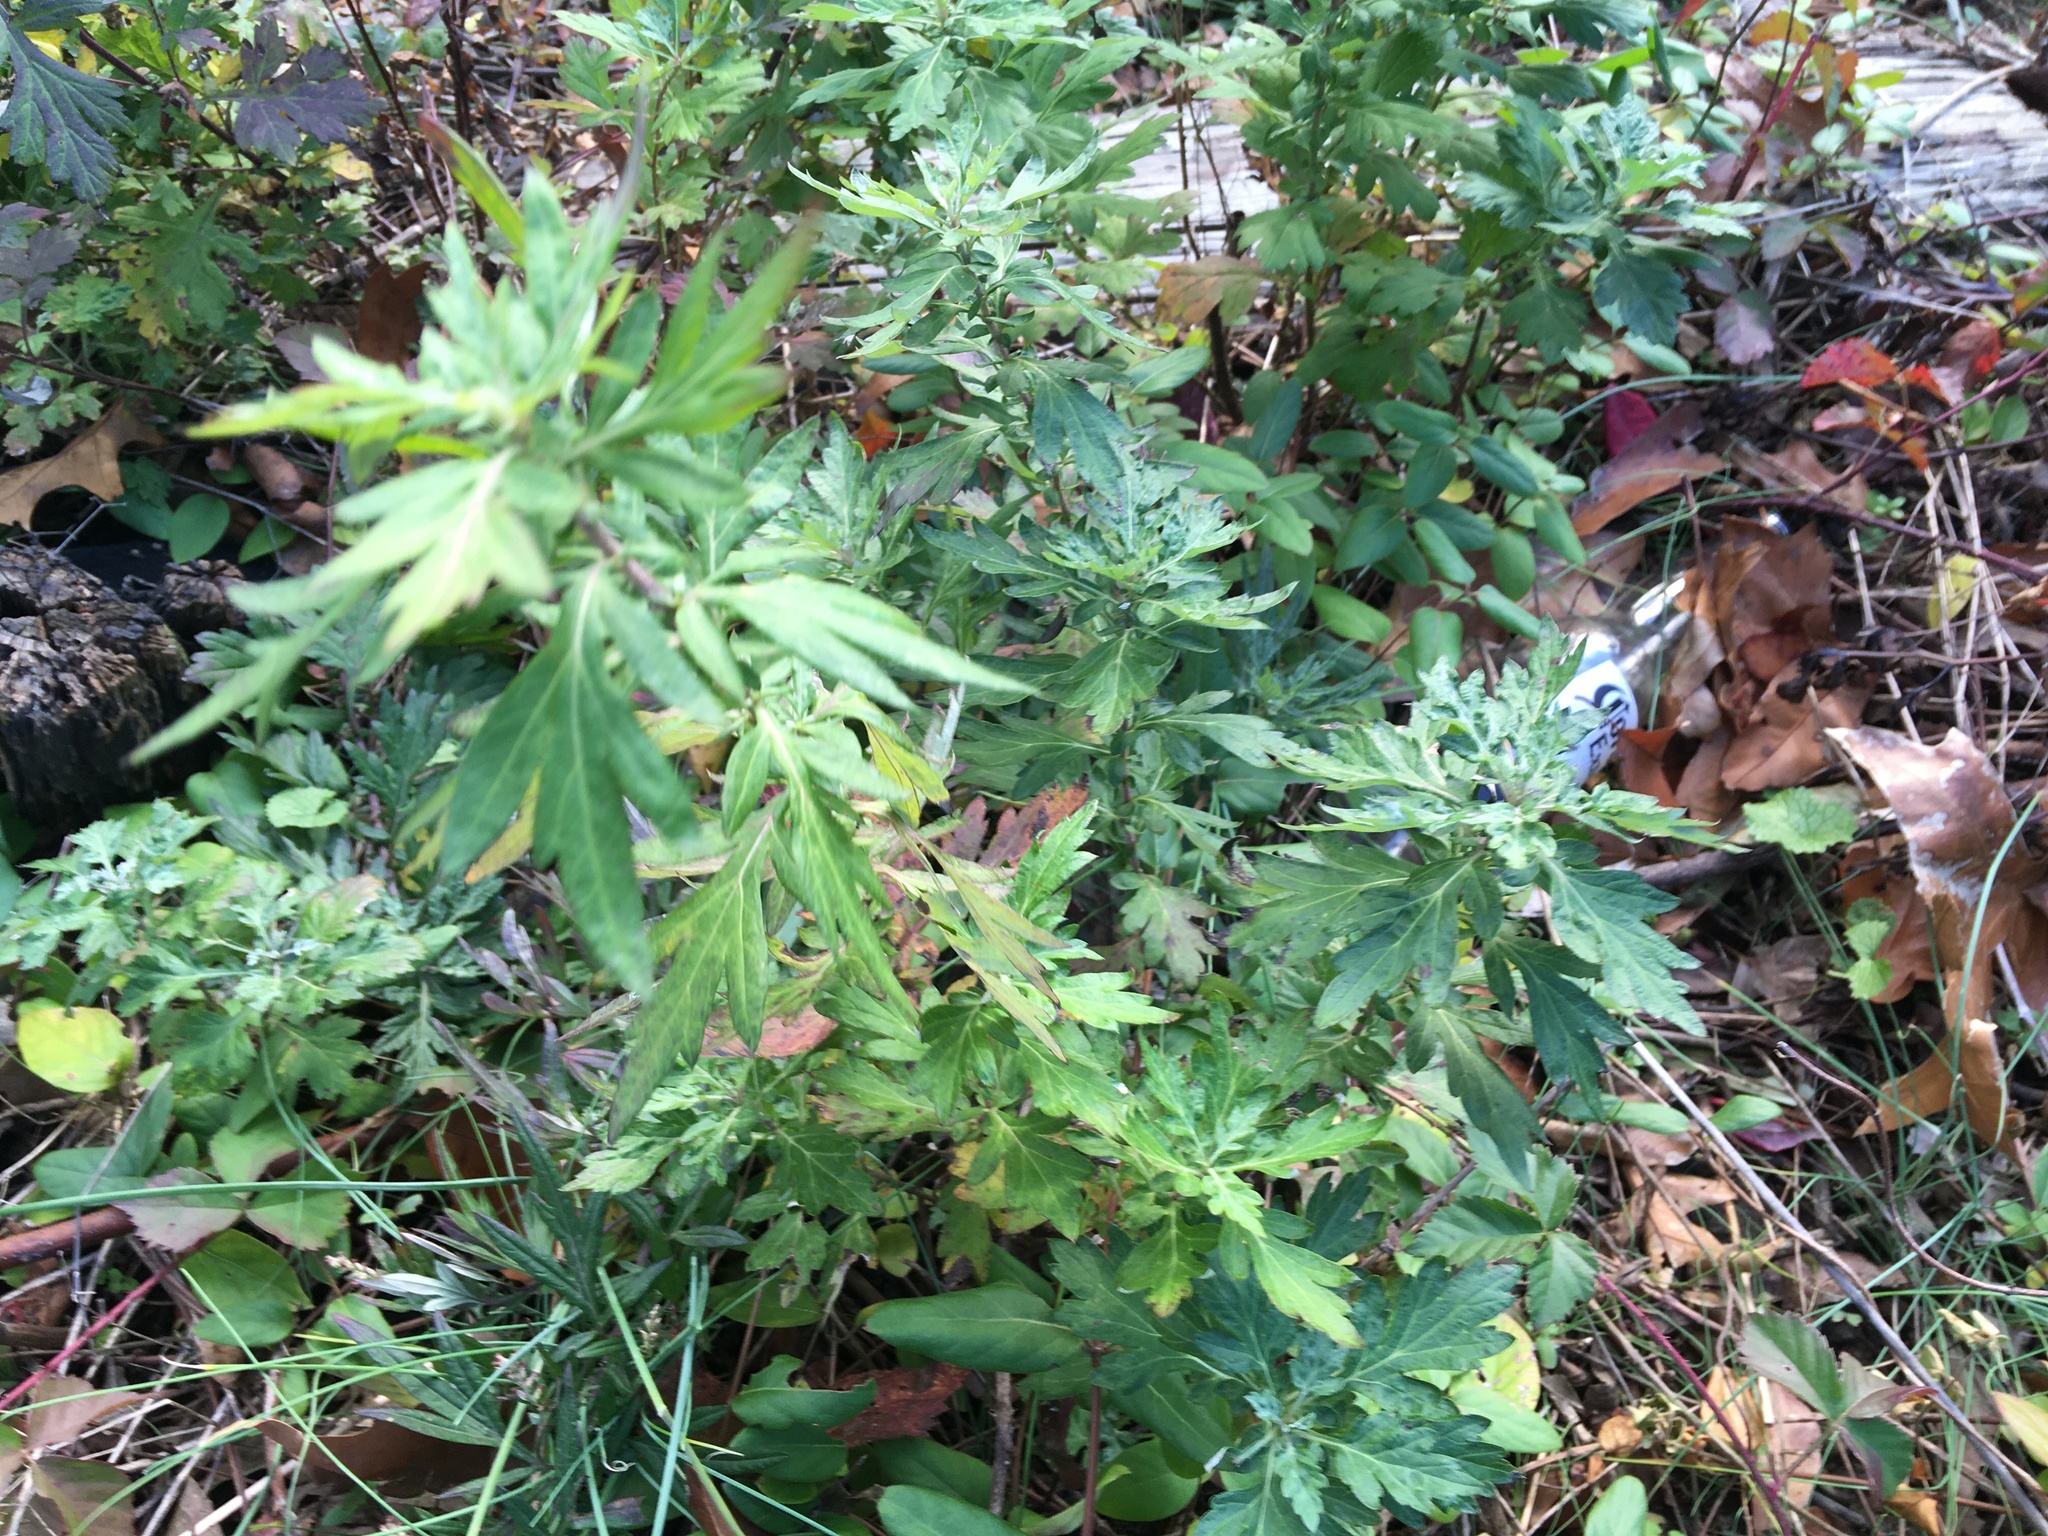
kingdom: Plantae
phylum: Tracheophyta
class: Magnoliopsida
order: Asterales
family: Asteraceae
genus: Artemisia
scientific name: Artemisia vulgaris
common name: Mugwort
